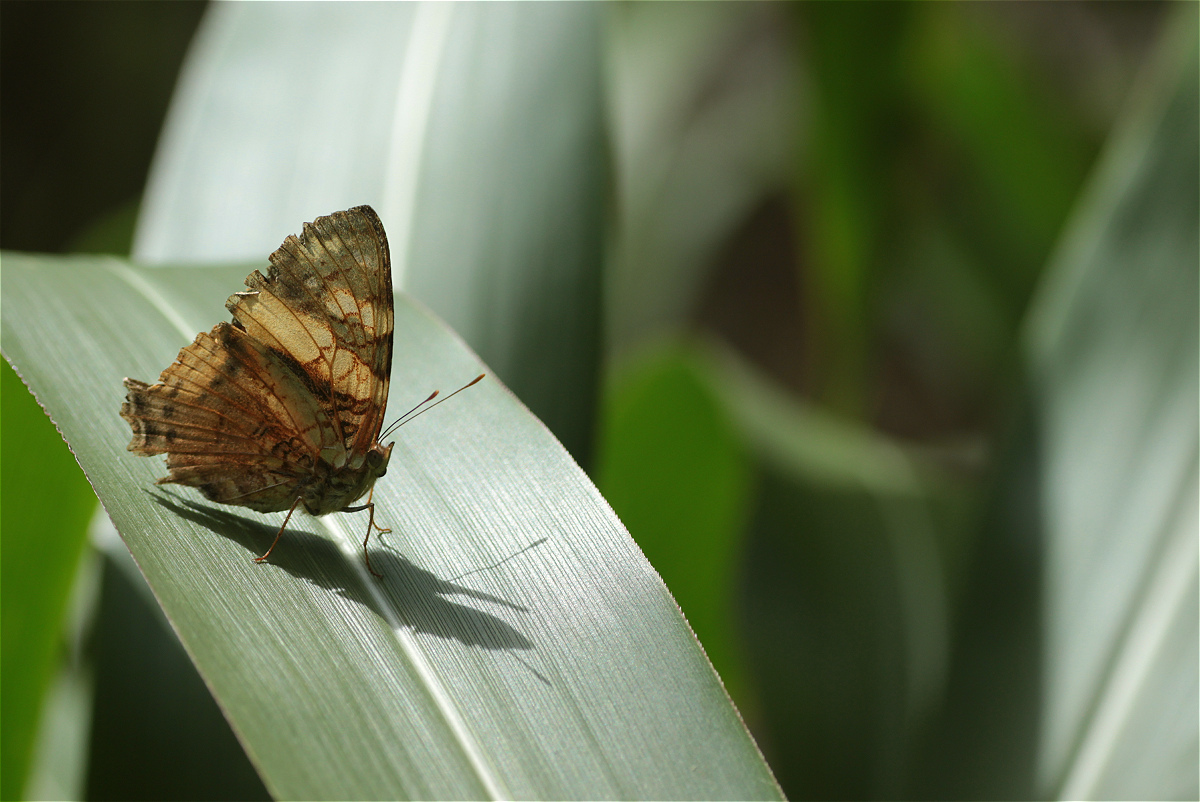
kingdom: Animalia
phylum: Arthropoda
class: Insecta
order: Lepidoptera
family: Nymphalidae
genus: Hypanartia
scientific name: Hypanartia lethe
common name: Orange mapwing
